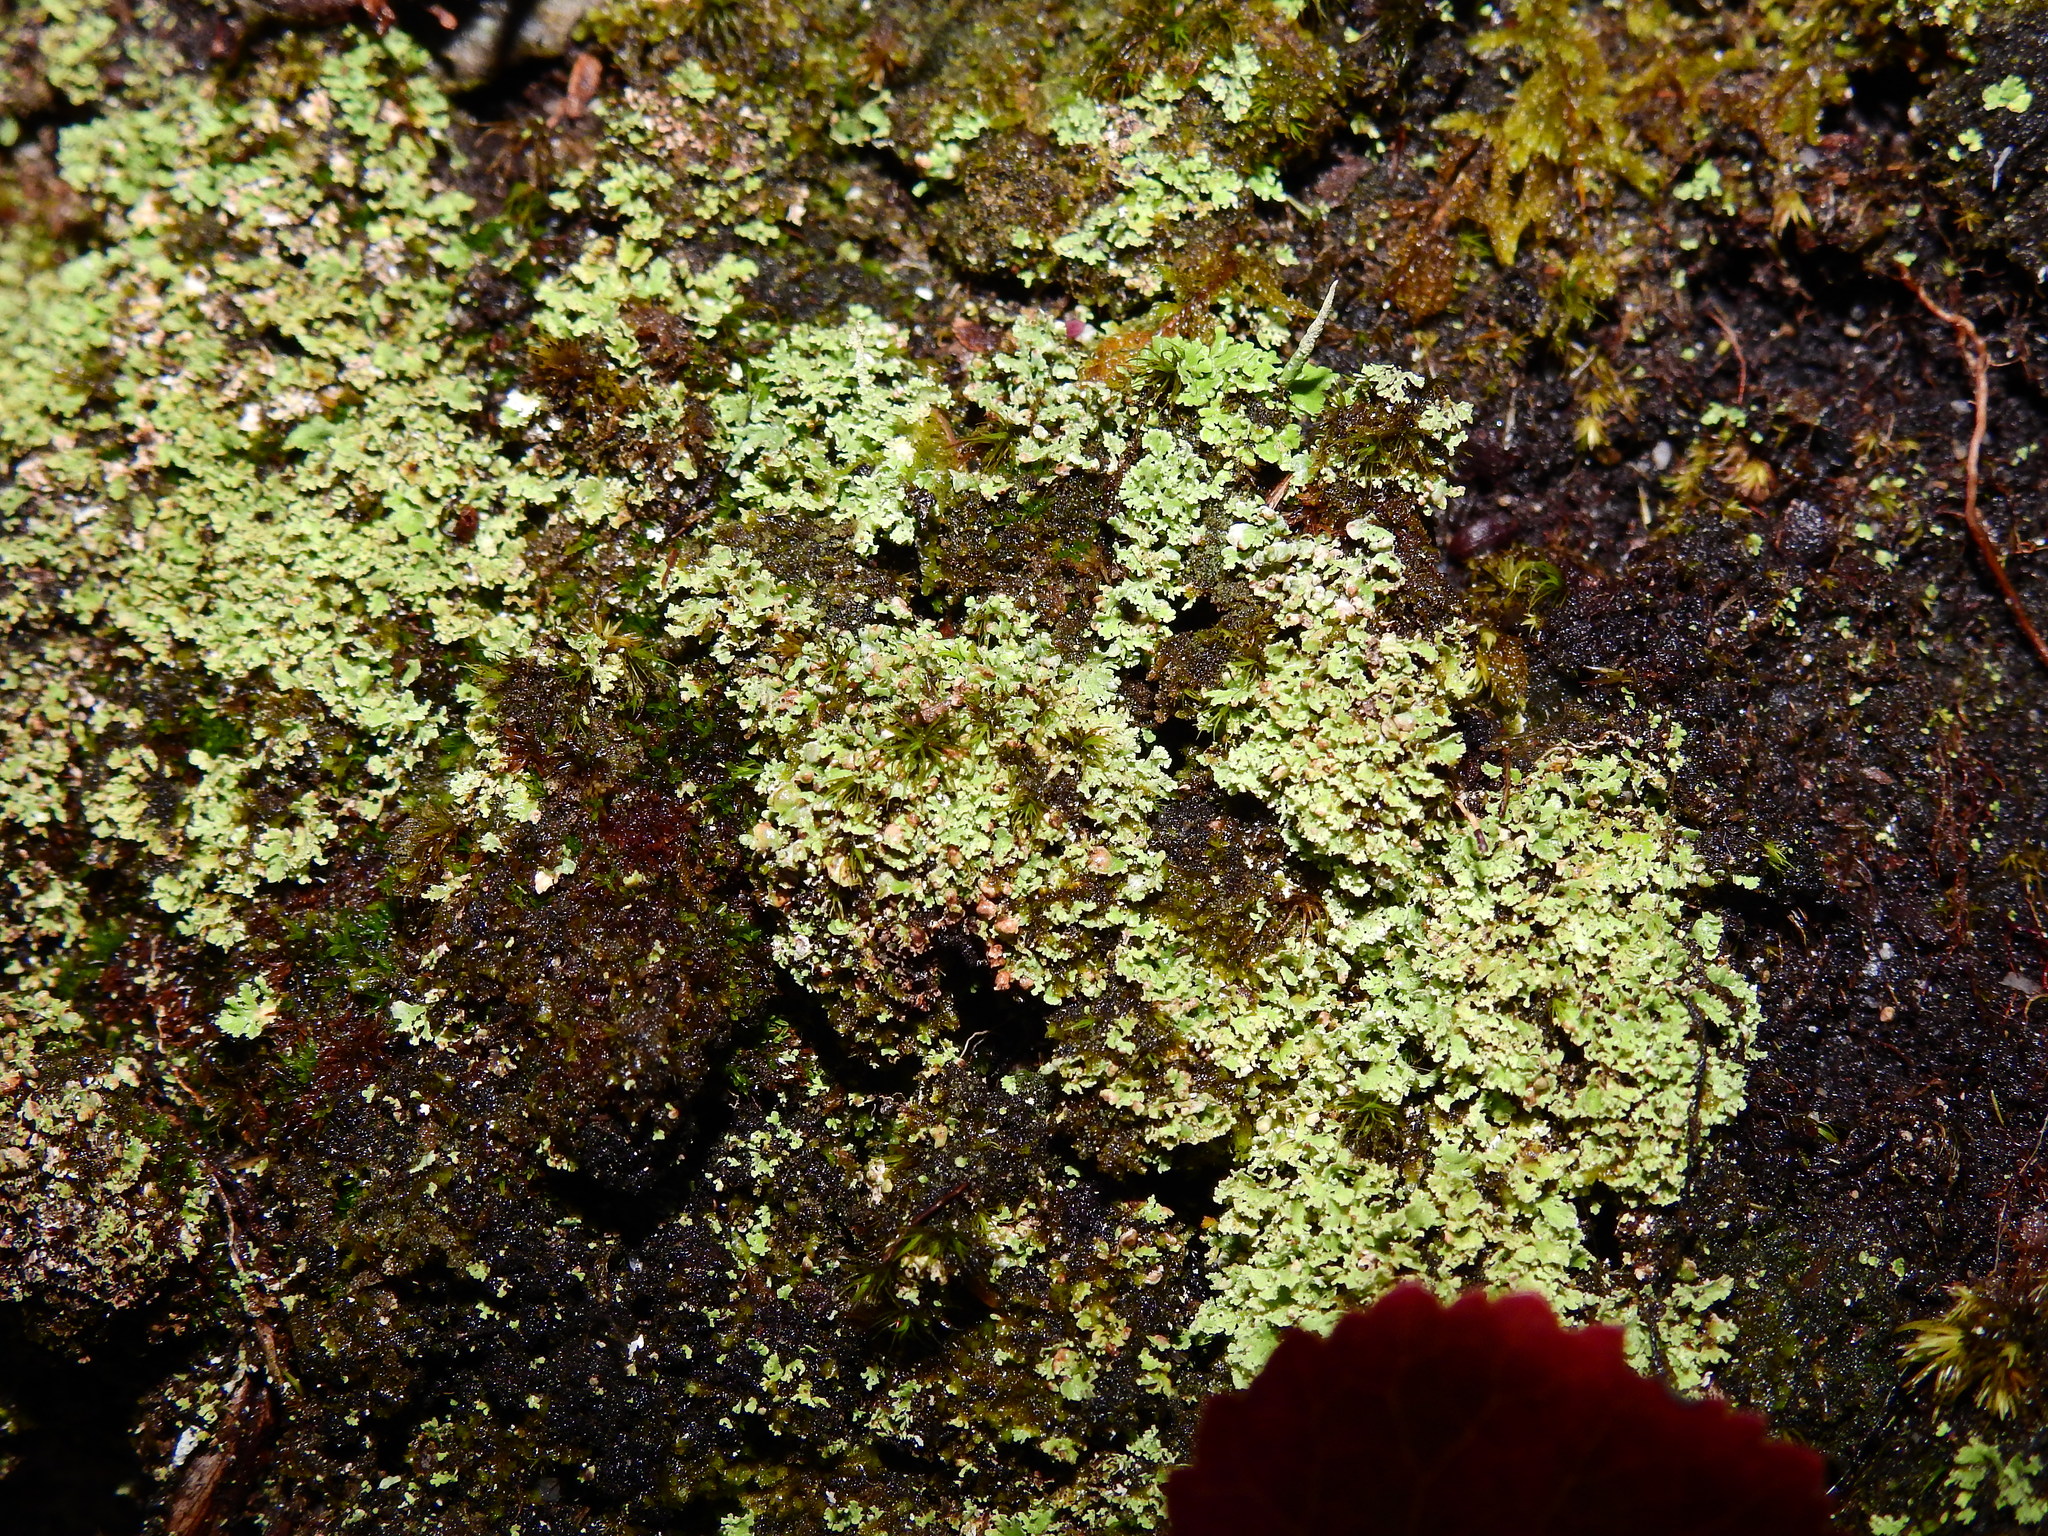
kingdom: Fungi
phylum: Ascomycota
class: Lecanoromycetes
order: Lecanorales
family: Cladoniaceae
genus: Cladonia
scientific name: Cladonia caespiticia
